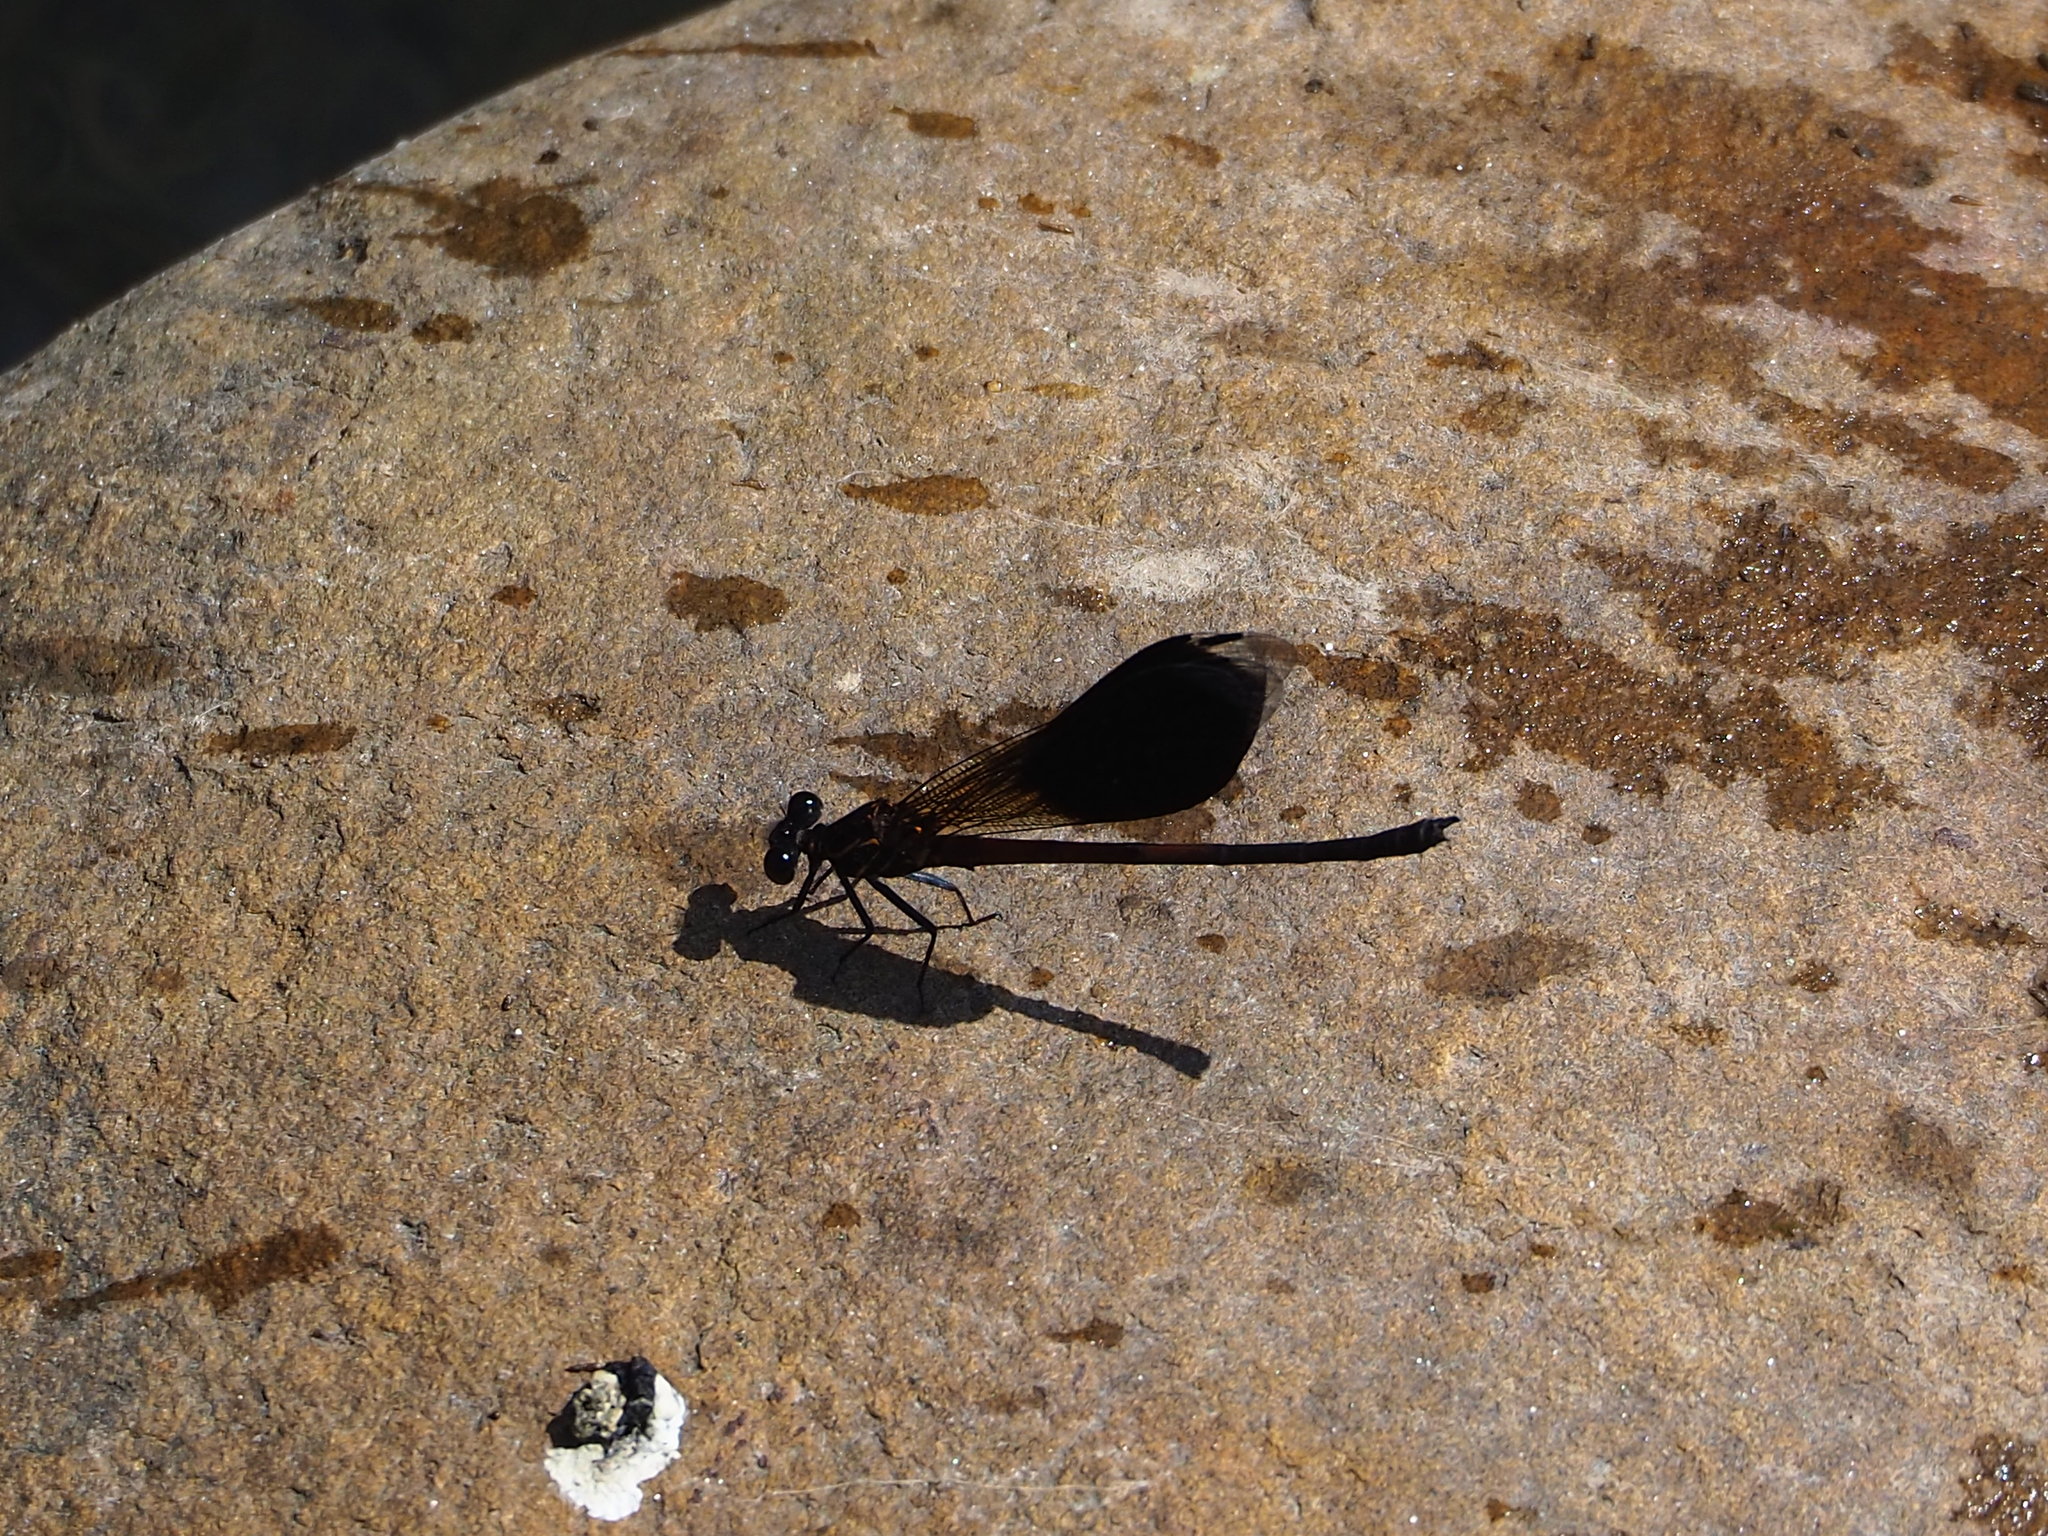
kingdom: Animalia
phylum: Arthropoda
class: Insecta
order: Odonata
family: Euphaeidae
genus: Euphaea
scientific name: Euphaea formosa
